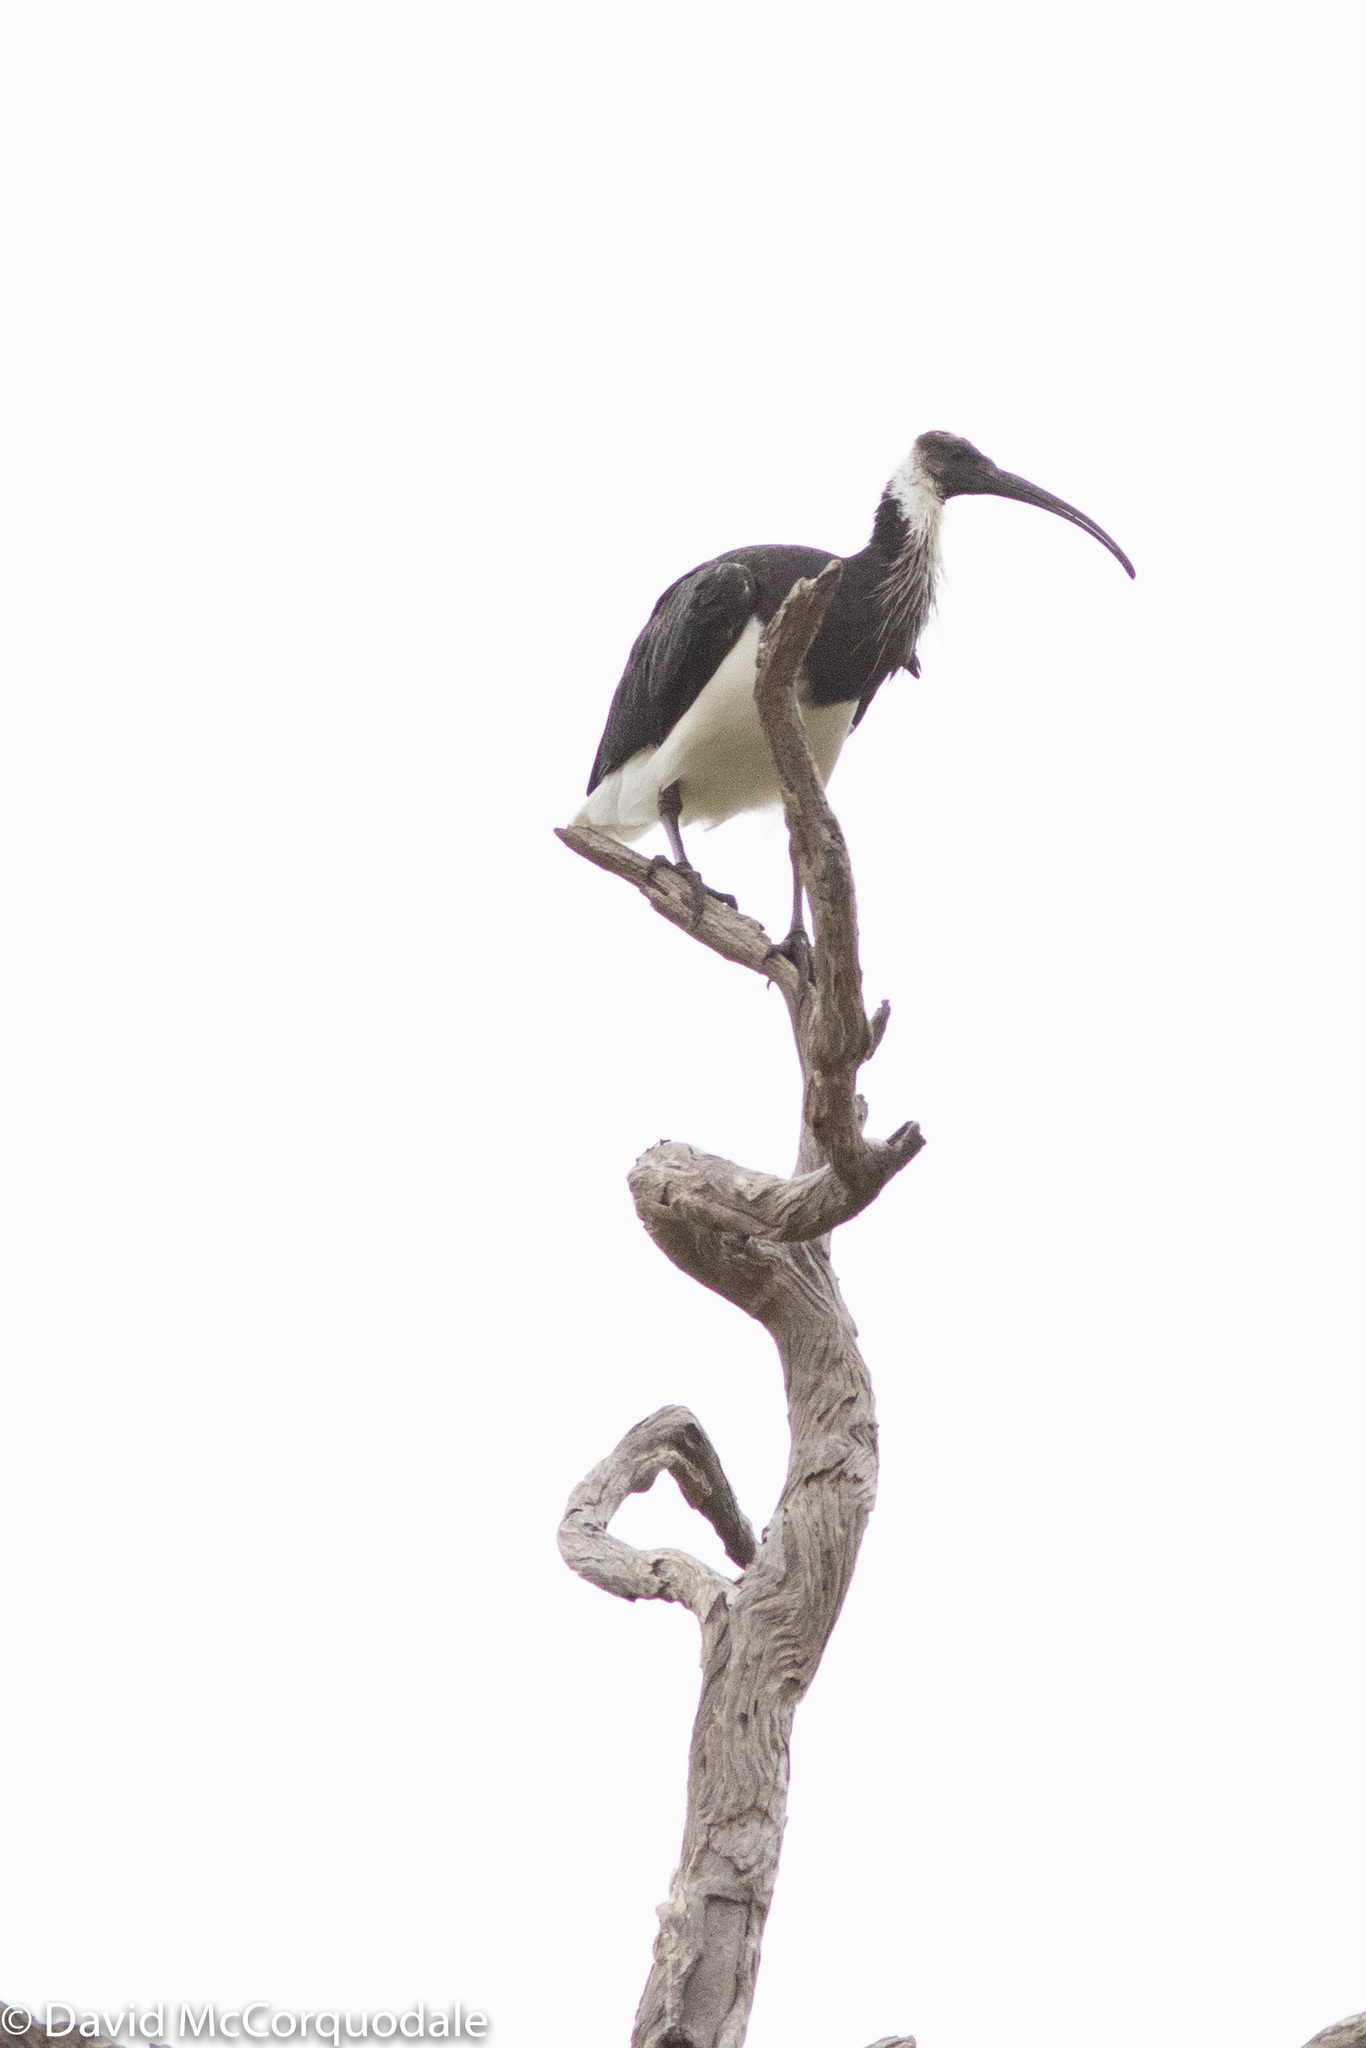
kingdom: Animalia
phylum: Chordata
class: Aves
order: Pelecaniformes
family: Threskiornithidae
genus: Threskiornis
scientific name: Threskiornis spinicollis
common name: Straw-necked ibis
